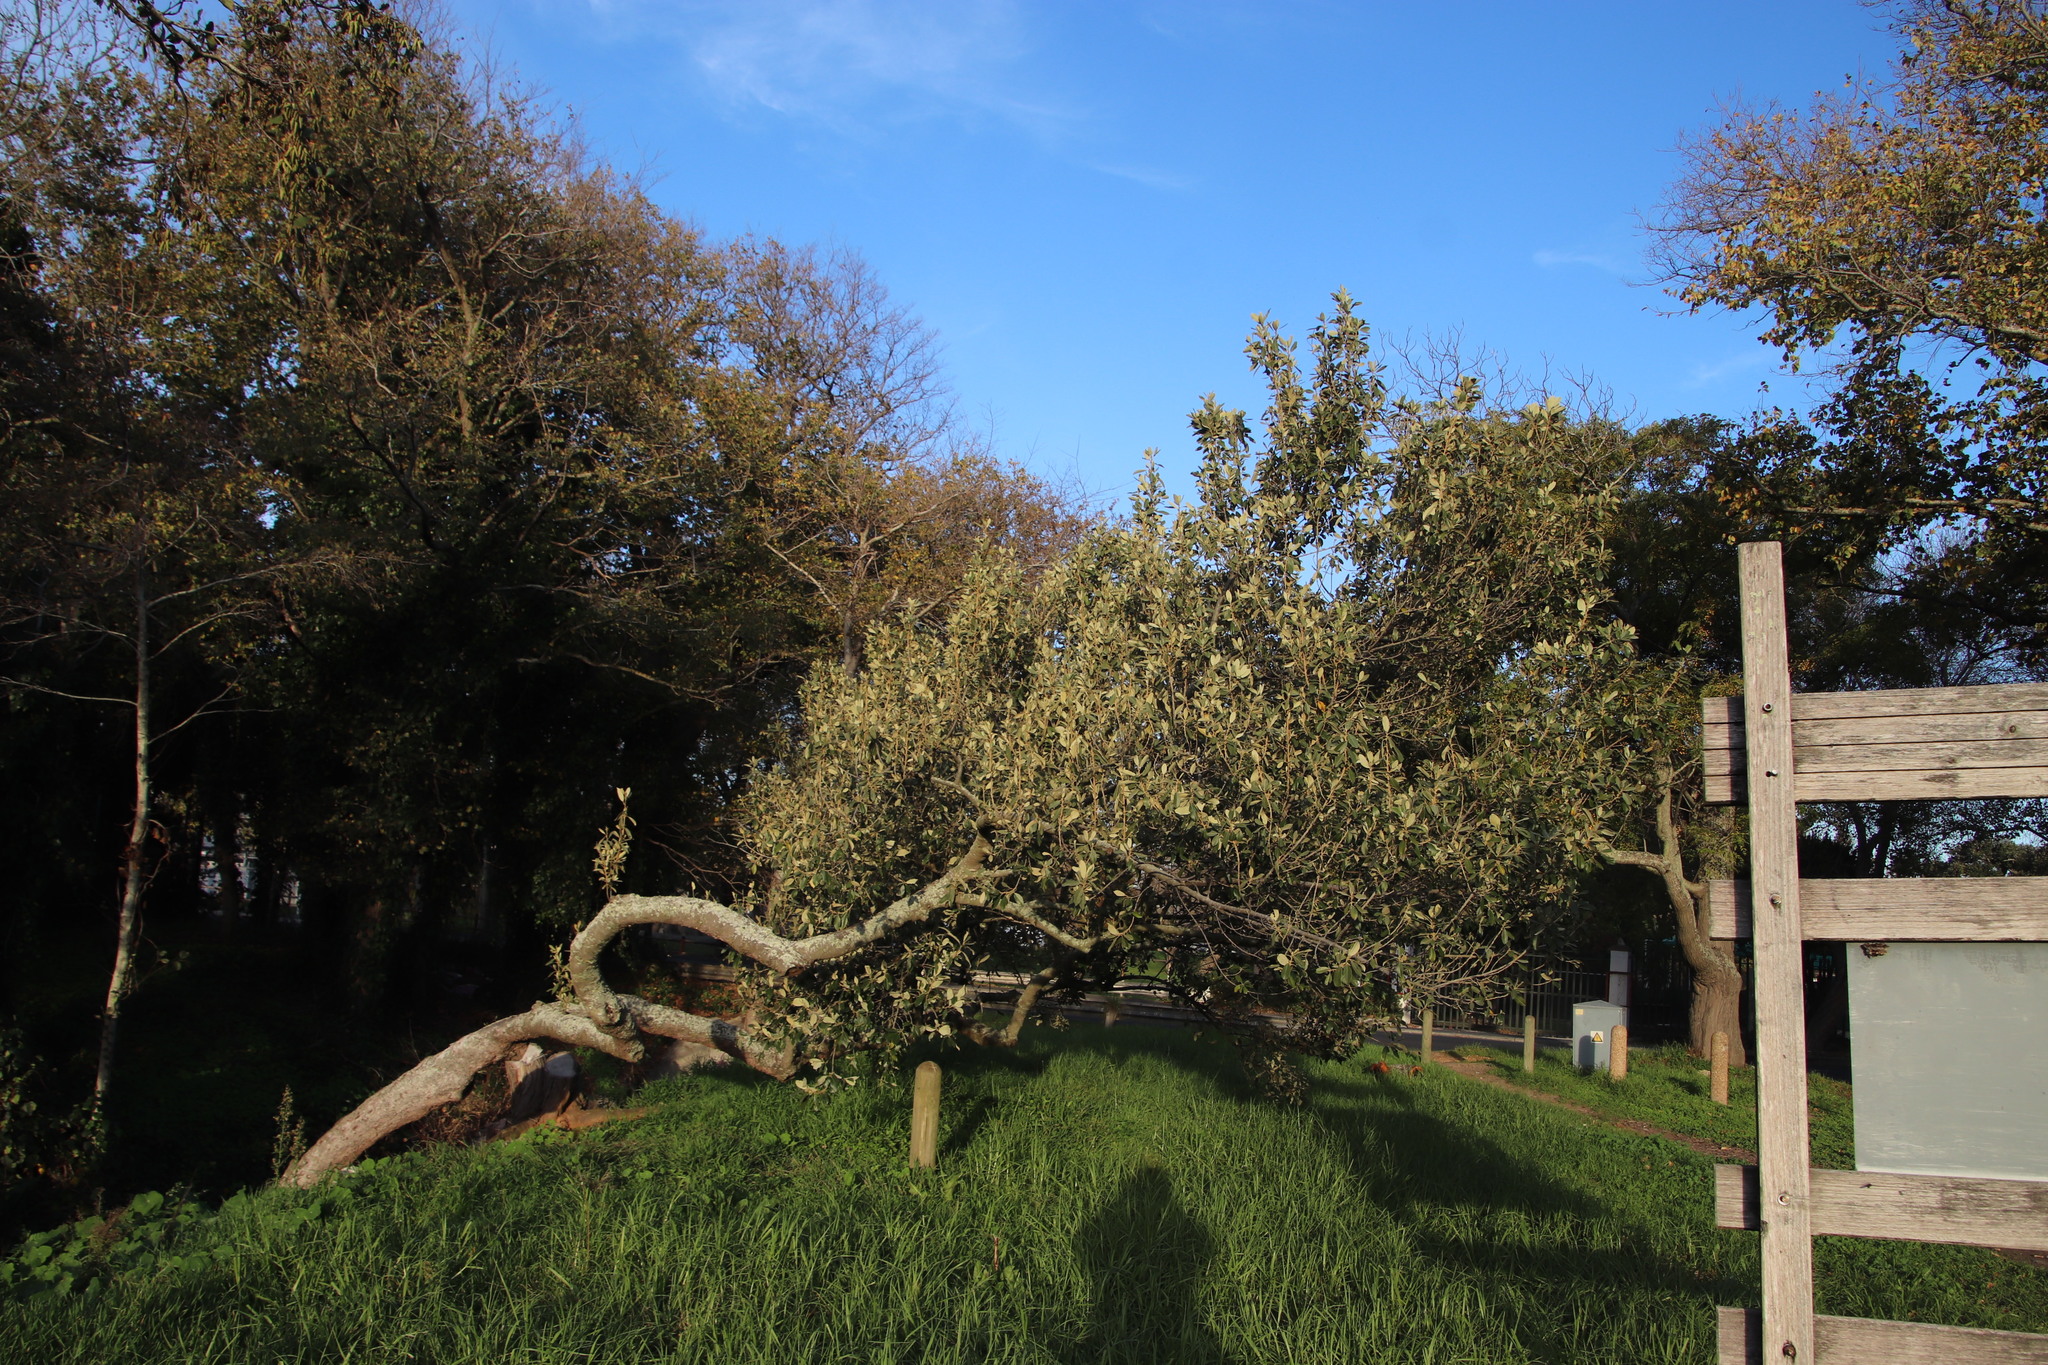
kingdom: Plantae
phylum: Tracheophyta
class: Magnoliopsida
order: Malpighiales
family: Achariaceae
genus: Kiggelaria
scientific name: Kiggelaria africana
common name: Wild peach
